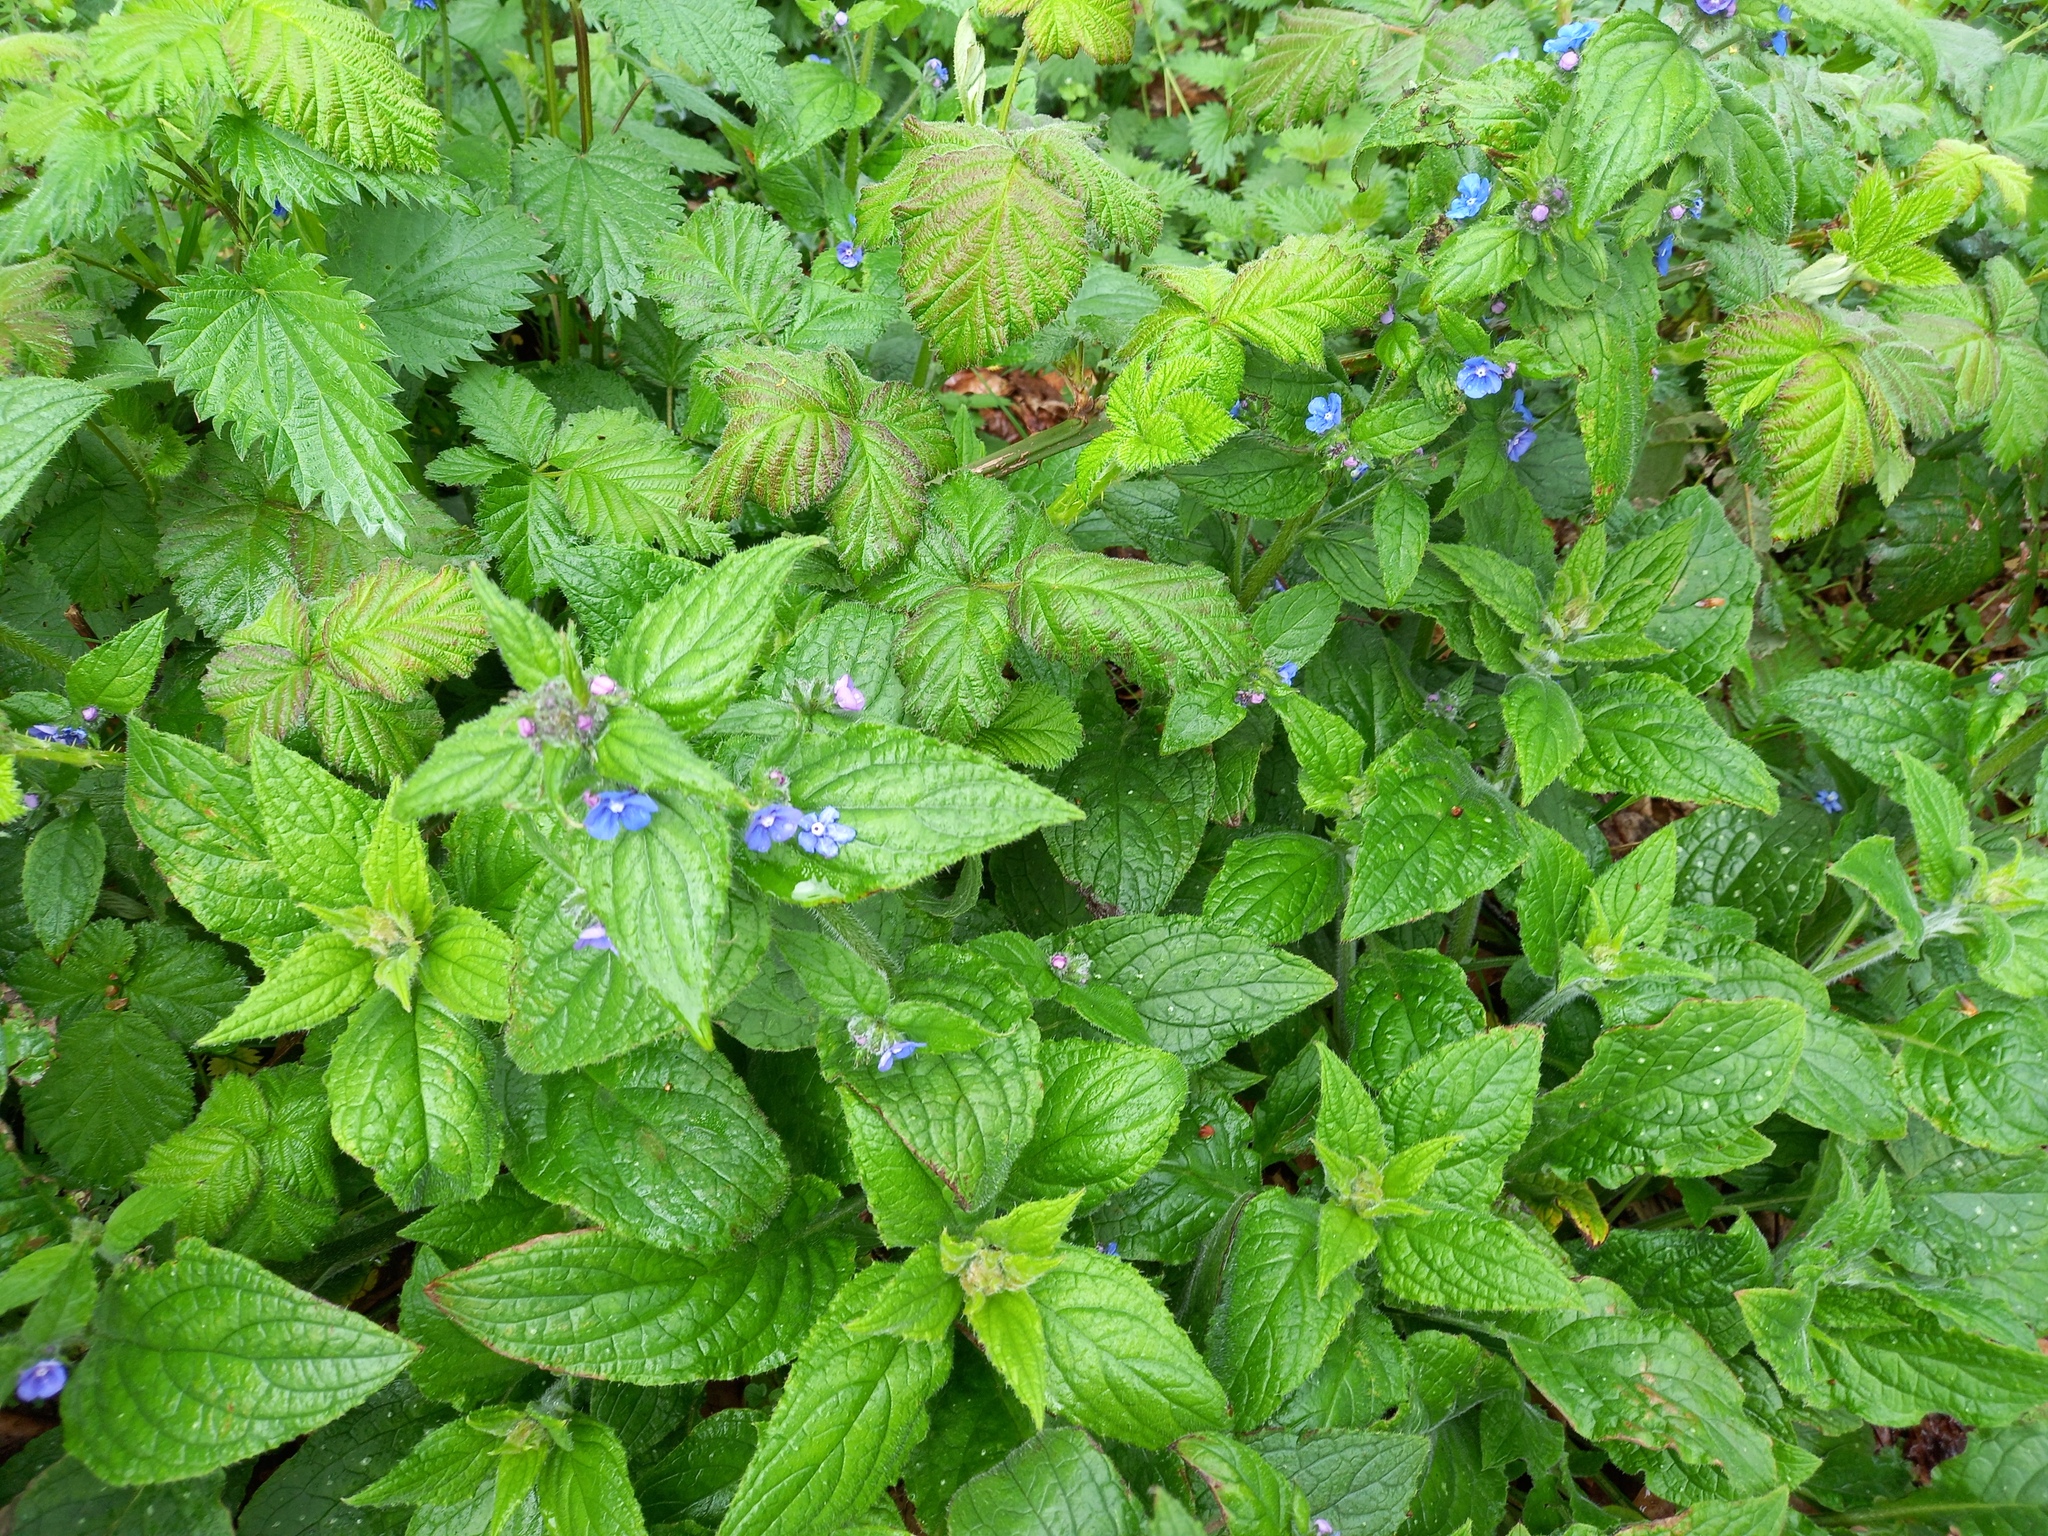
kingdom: Plantae
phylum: Tracheophyta
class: Magnoliopsida
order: Boraginales
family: Boraginaceae
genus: Pentaglottis
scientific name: Pentaglottis sempervirens
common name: Green alkanet
